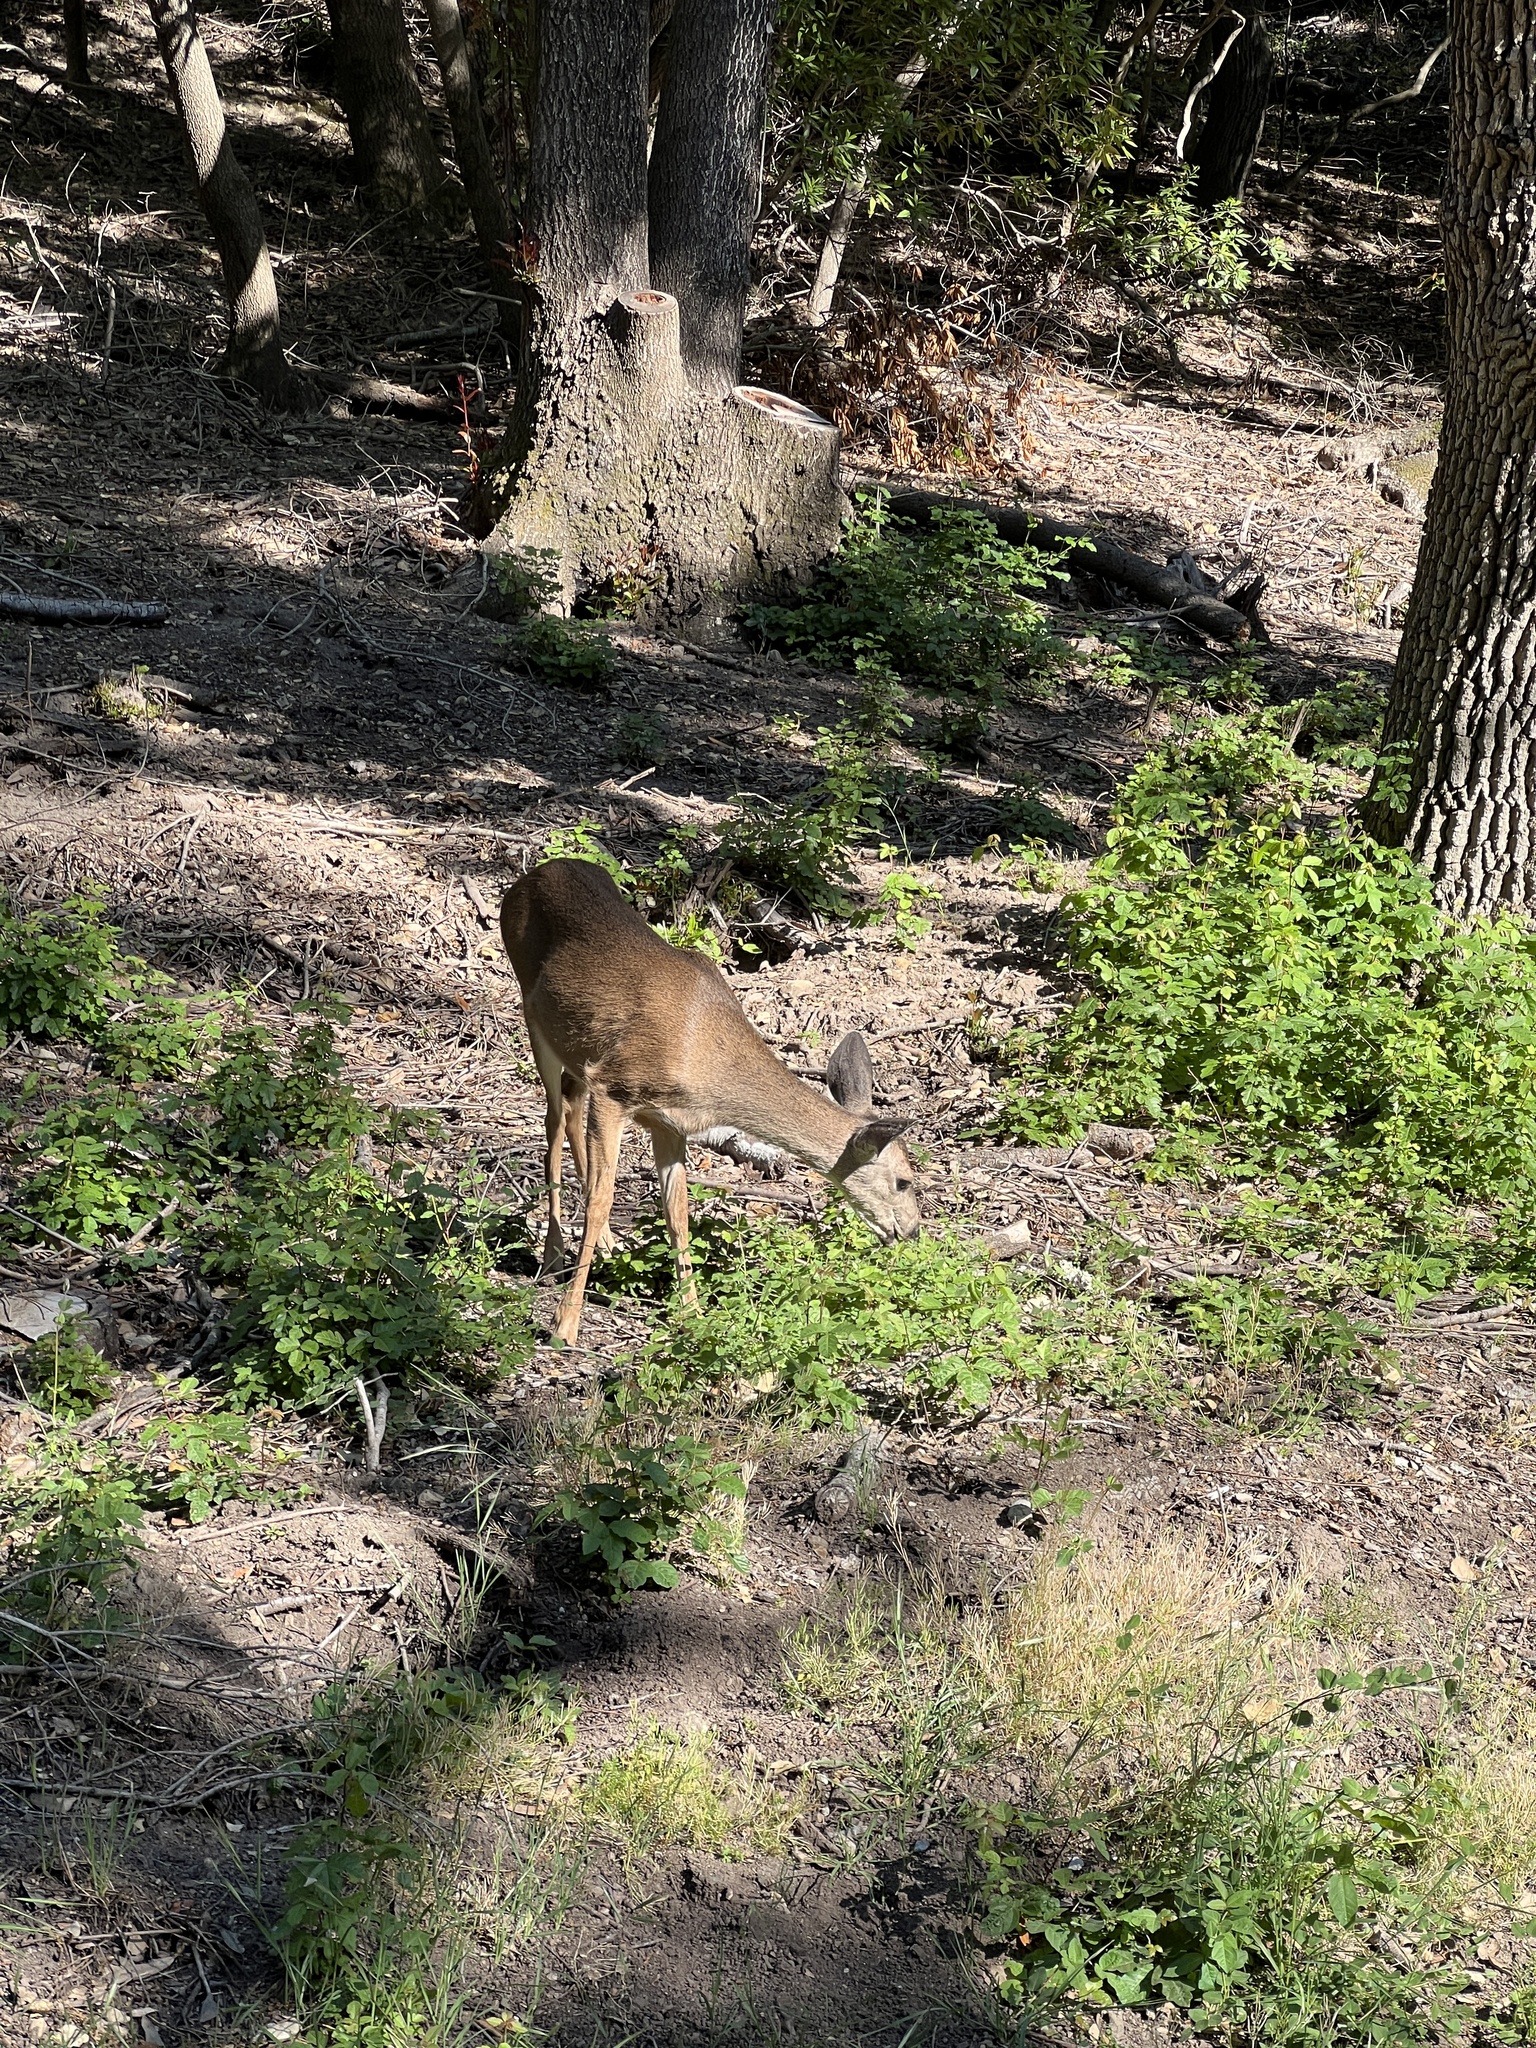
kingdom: Animalia
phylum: Chordata
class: Mammalia
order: Artiodactyla
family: Cervidae
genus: Odocoileus
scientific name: Odocoileus hemionus
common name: Mule deer
